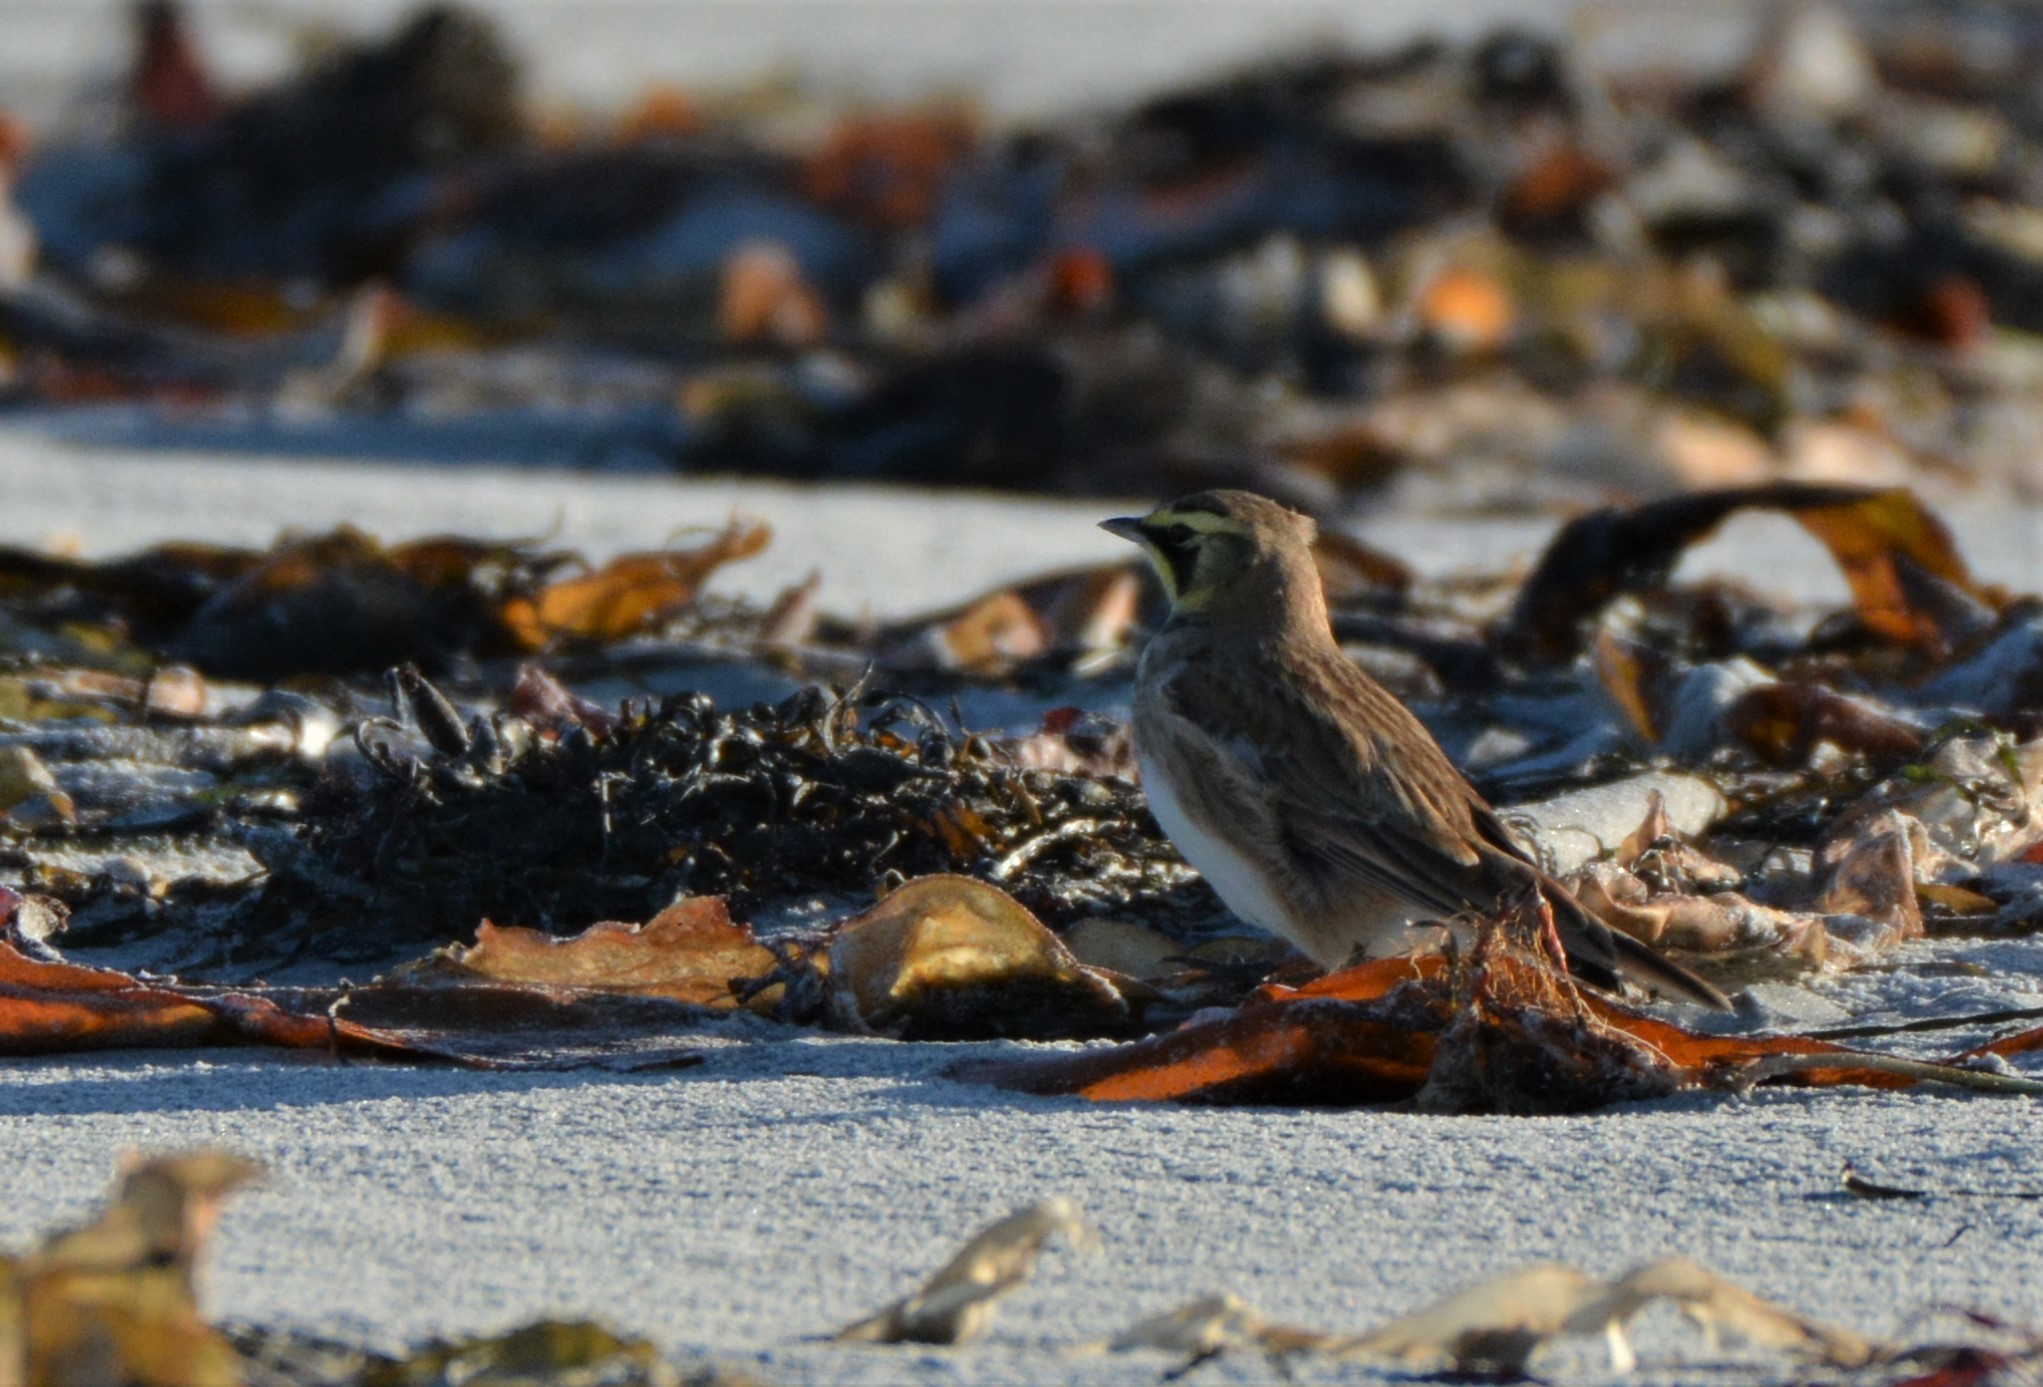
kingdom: Animalia
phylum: Chordata
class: Aves
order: Passeriformes
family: Alaudidae
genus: Eremophila
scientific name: Eremophila alpestris
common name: Horned lark
